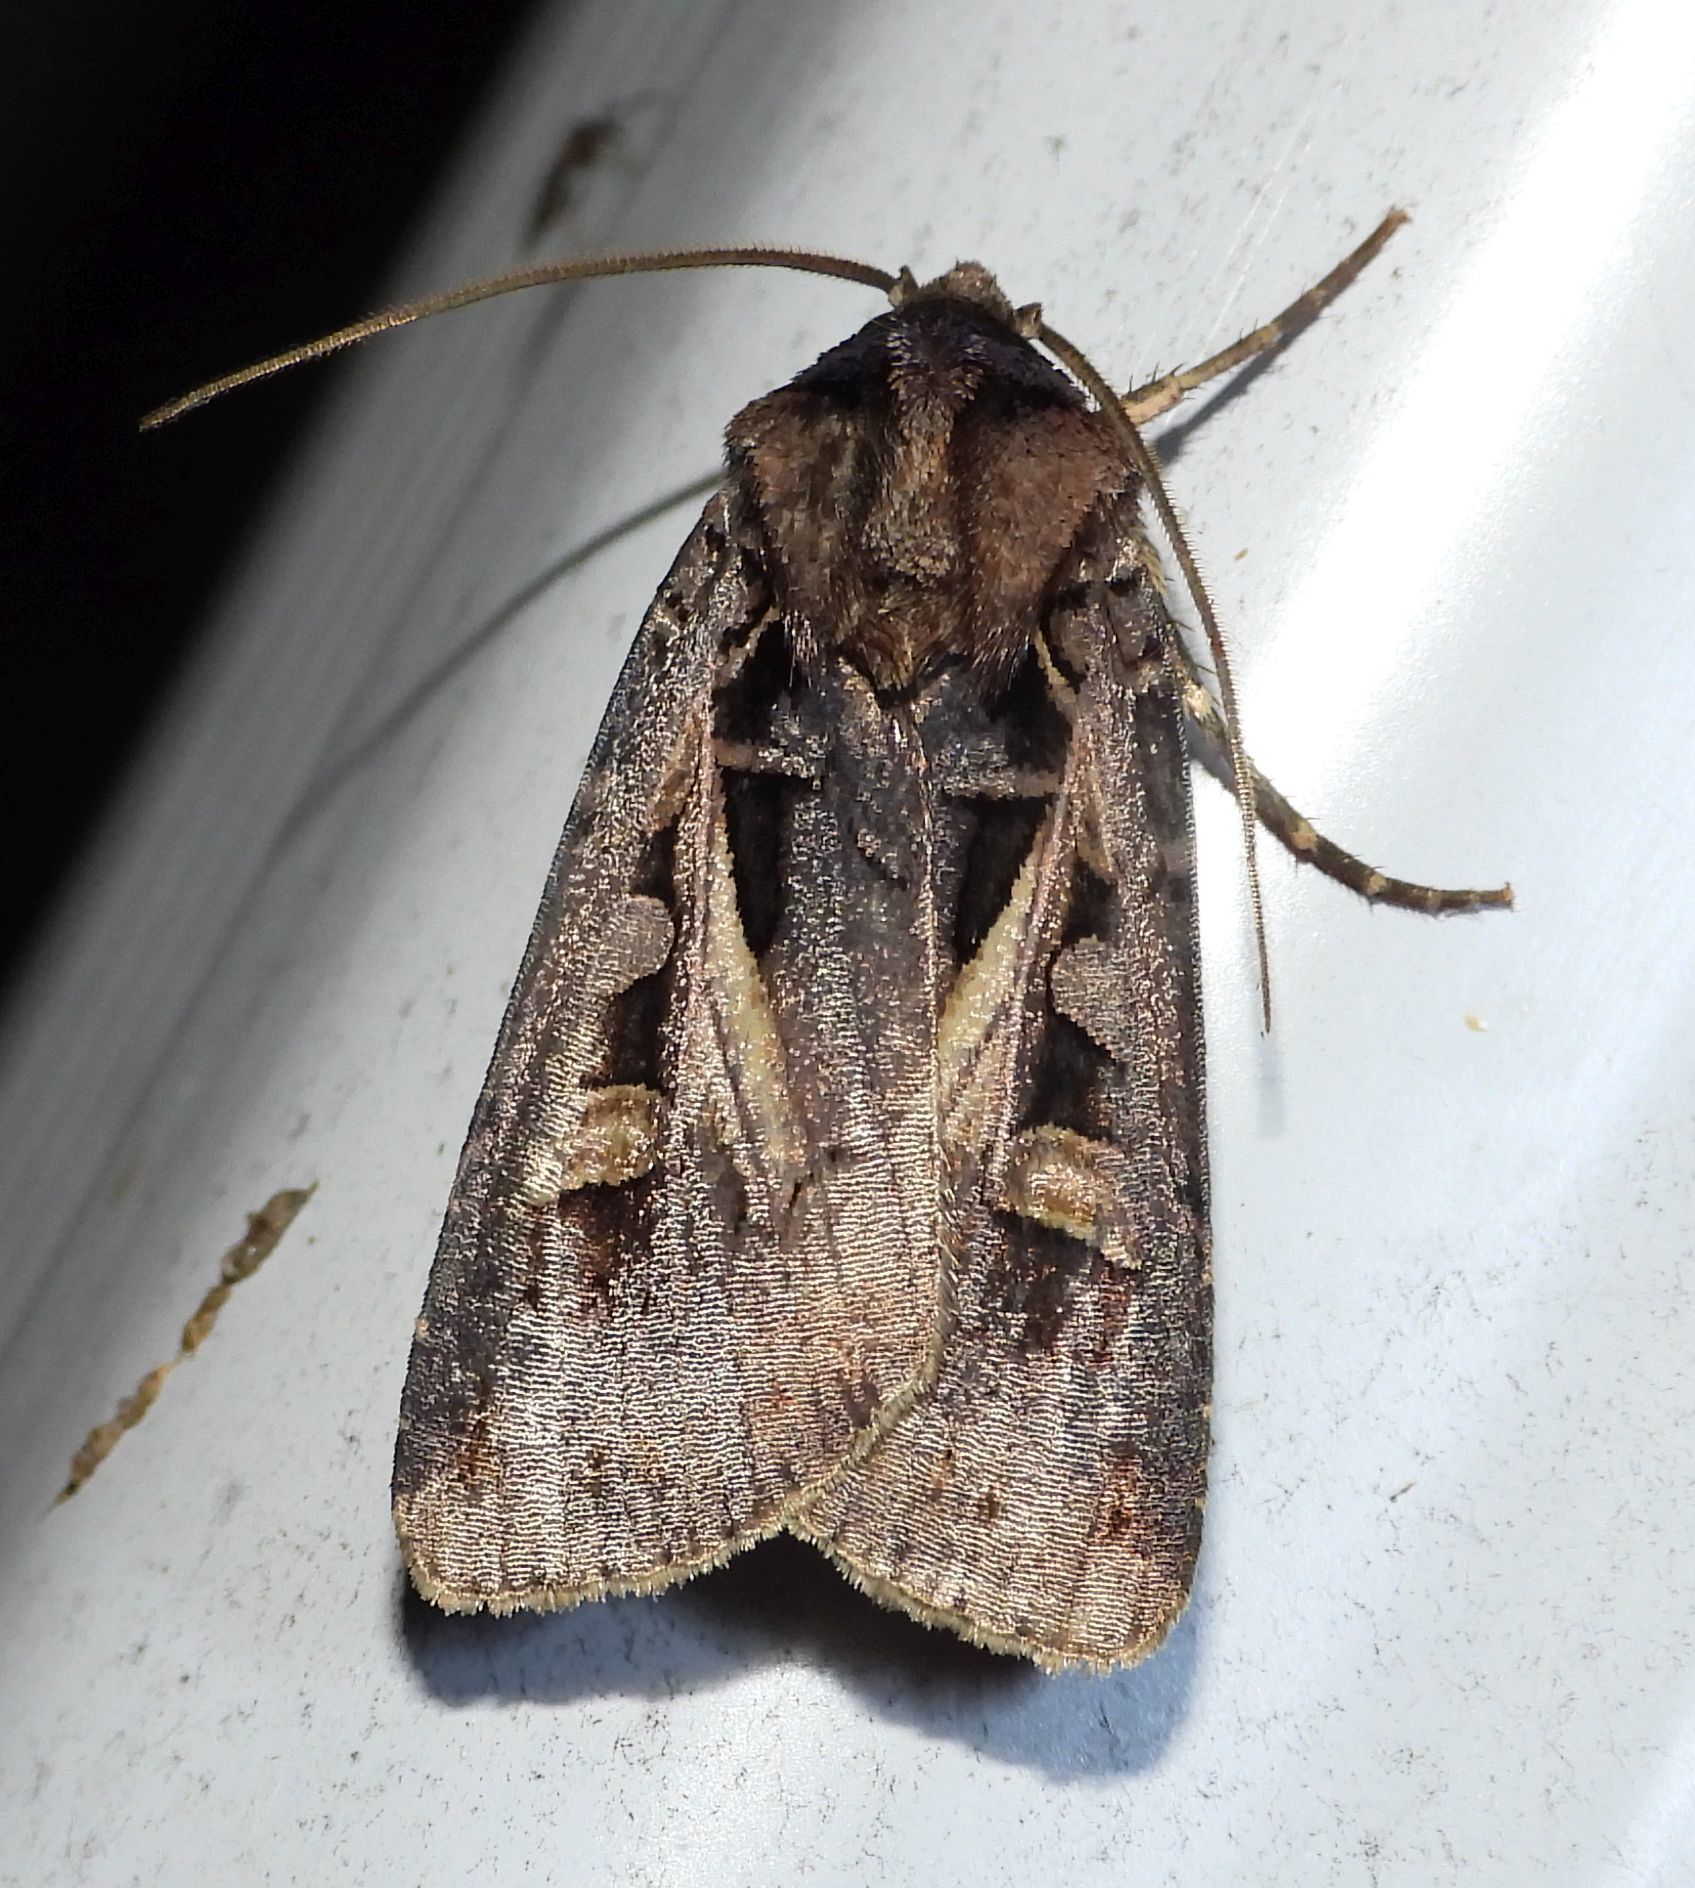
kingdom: Animalia
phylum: Arthropoda
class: Insecta
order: Lepidoptera
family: Noctuidae
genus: Feltia
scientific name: Feltia herilis
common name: Master's dart
